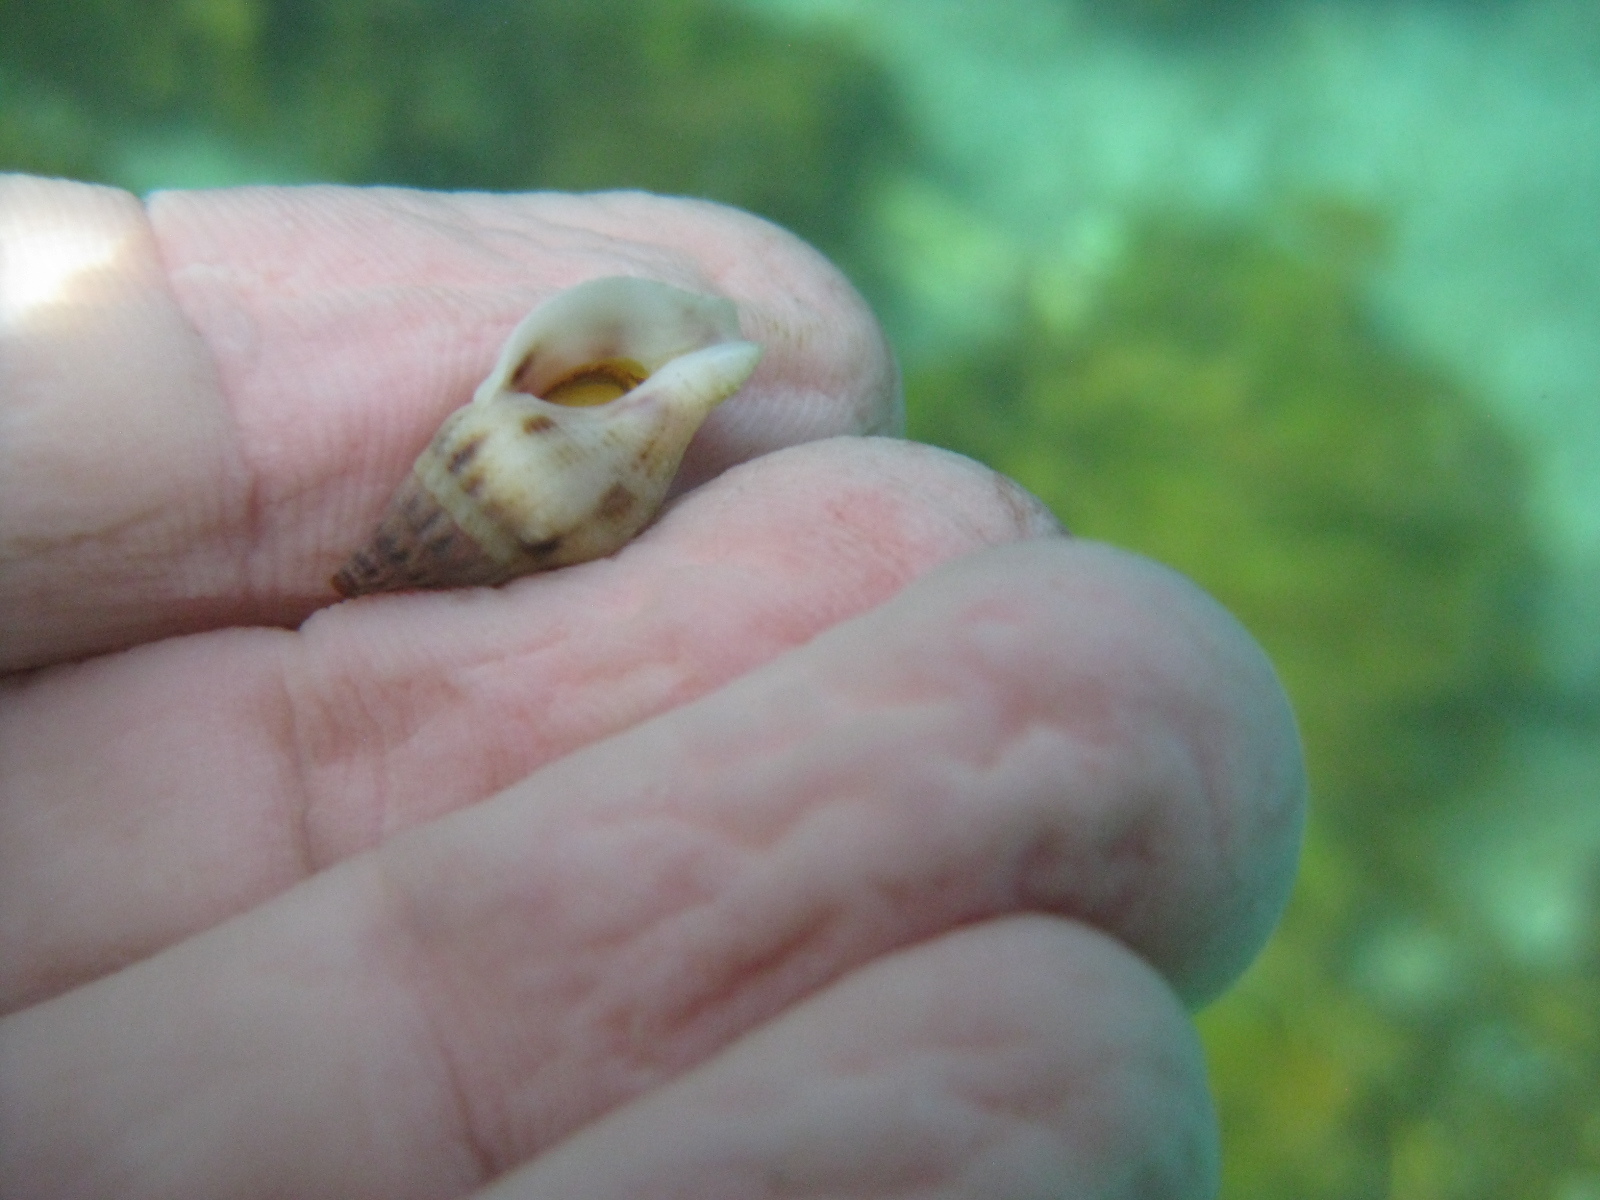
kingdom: Animalia
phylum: Mollusca
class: Gastropoda
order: Neogastropoda
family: Tudiclidae
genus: Buccinulum
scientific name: Buccinulum vittatum
